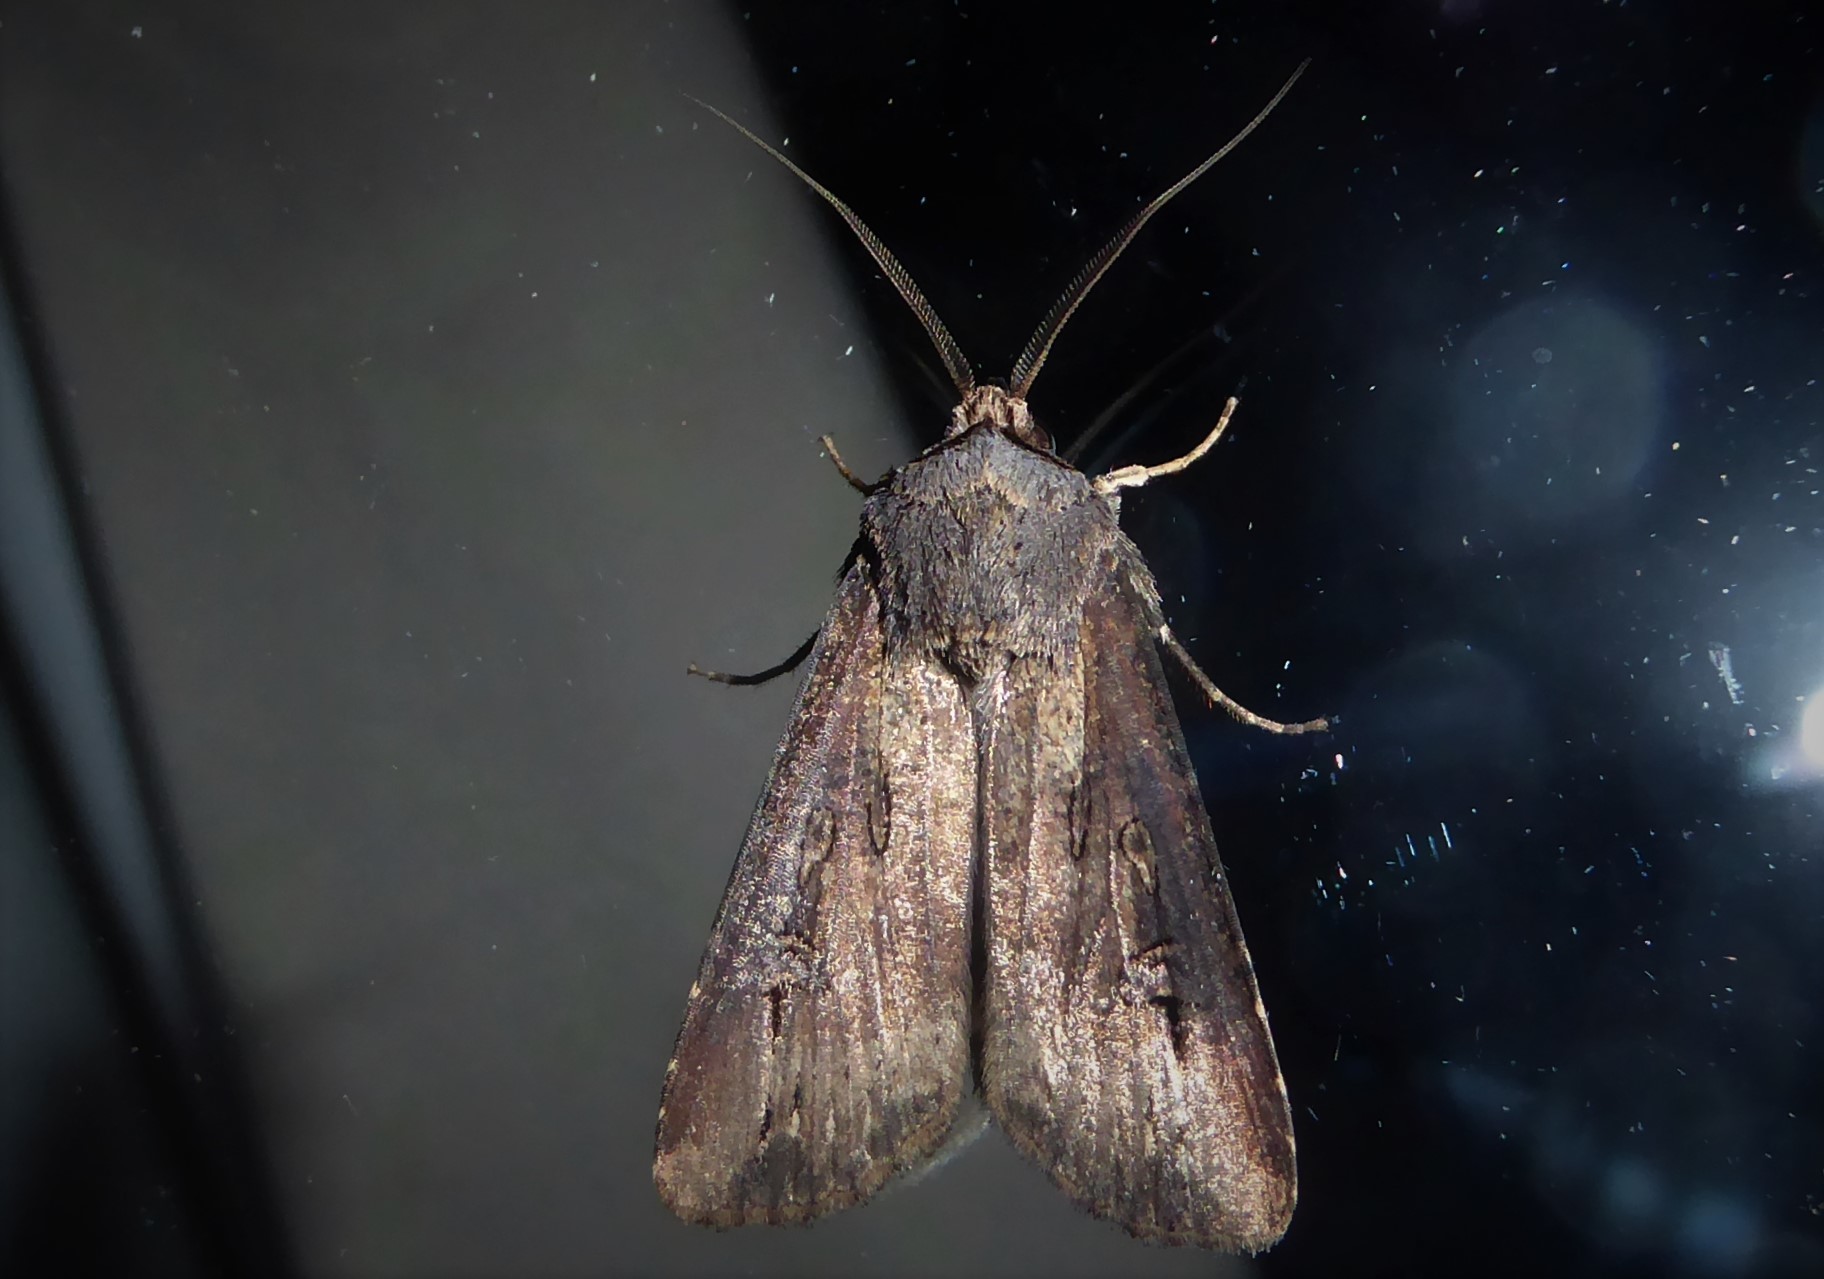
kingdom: Animalia
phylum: Arthropoda
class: Insecta
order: Lepidoptera
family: Noctuidae
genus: Agrotis
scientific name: Agrotis ipsilon
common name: Dark sword-grass
